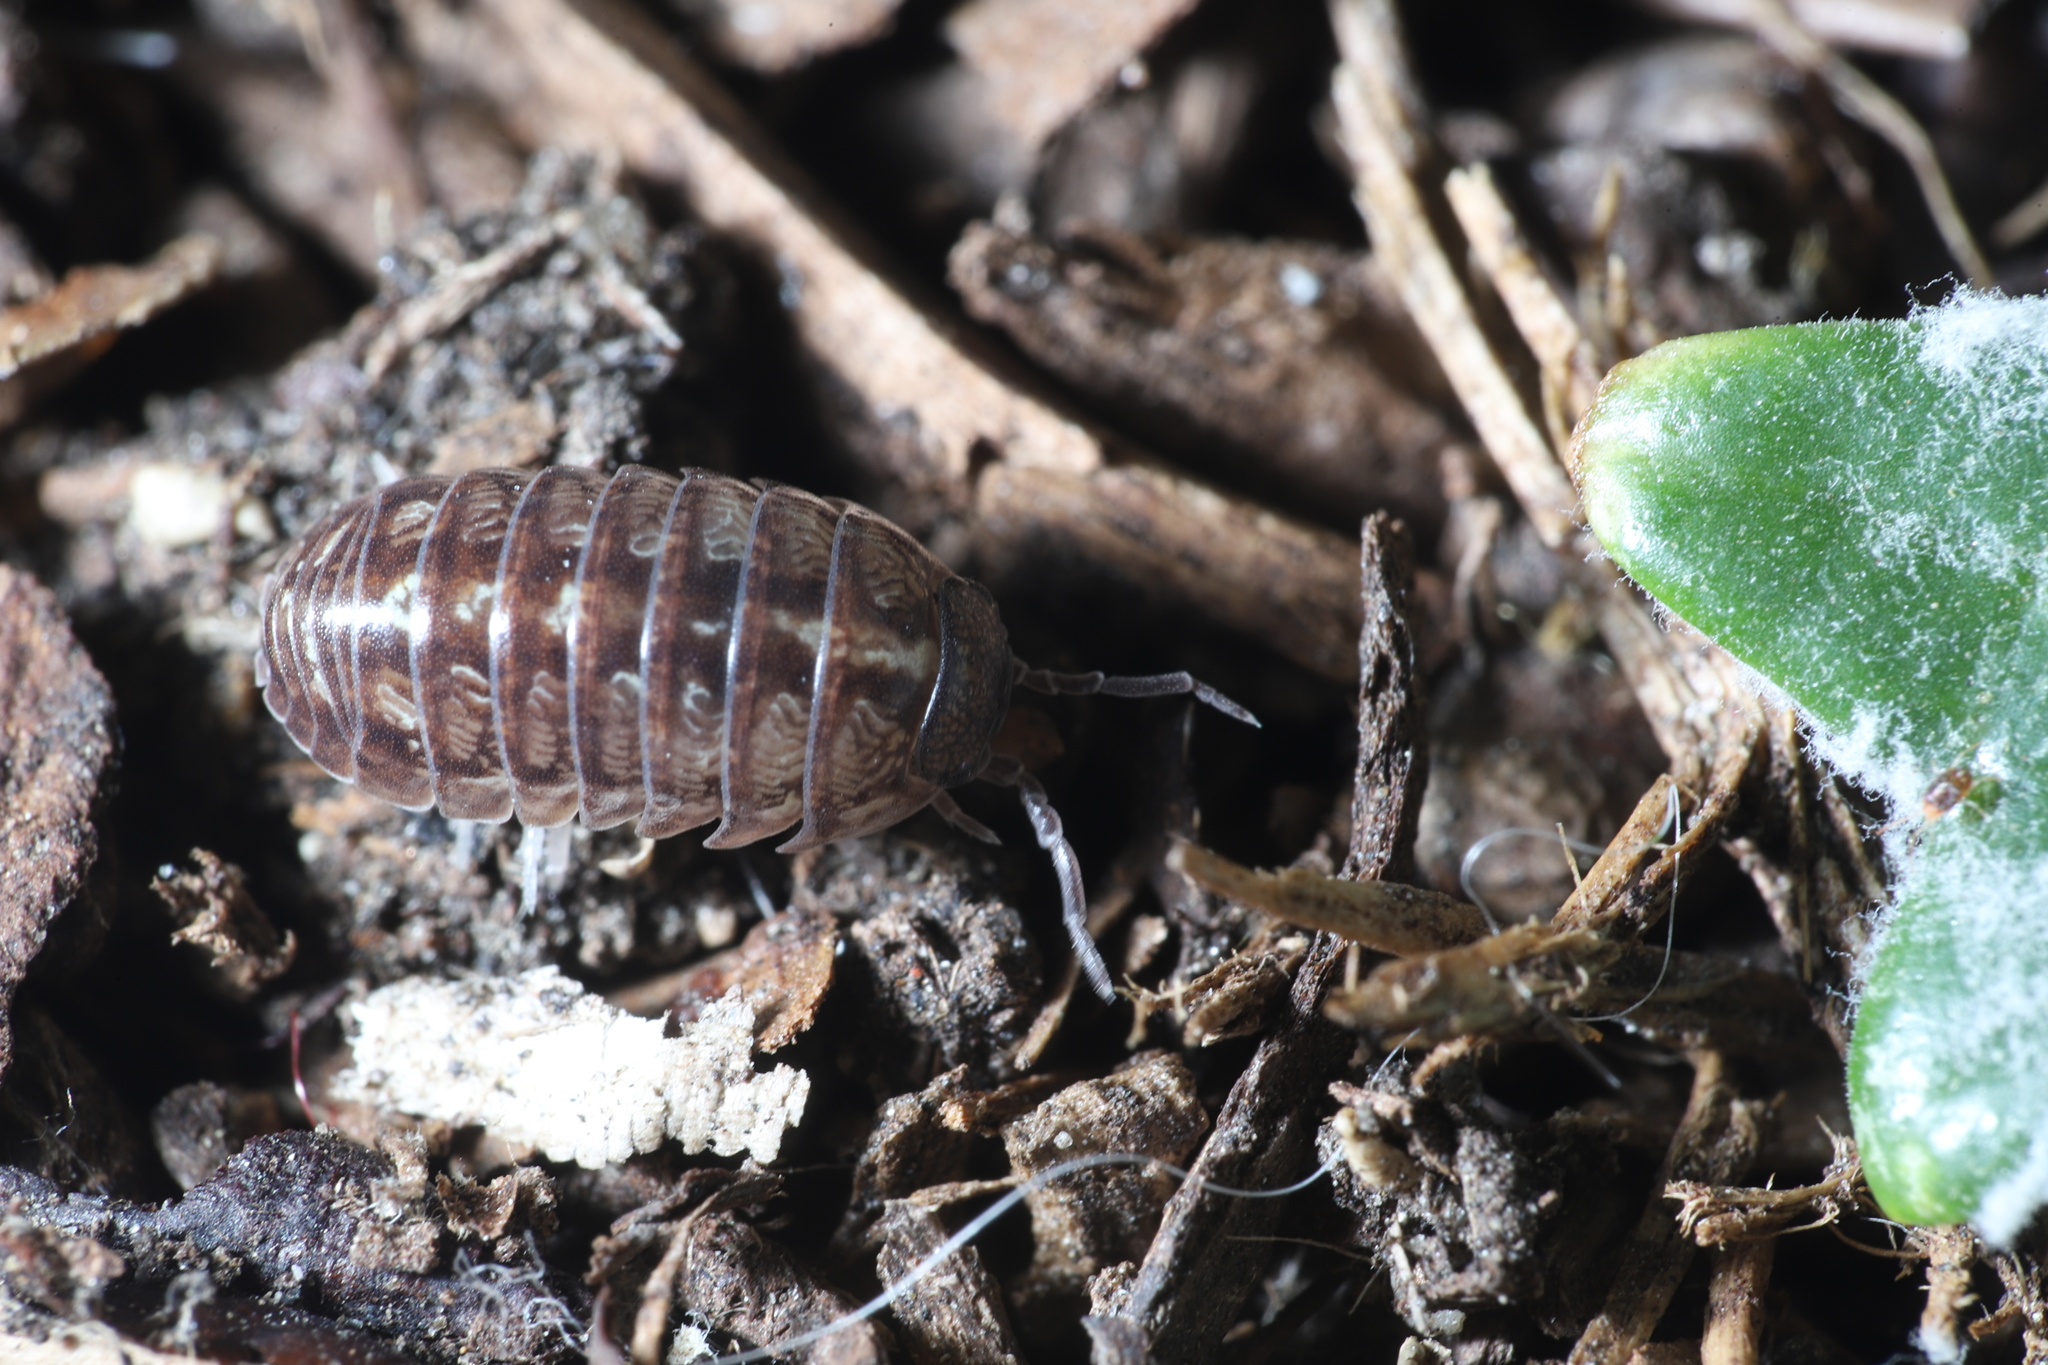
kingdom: Animalia
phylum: Arthropoda
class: Malacostraca
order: Isopoda
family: Armadillidiidae
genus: Armadillidium
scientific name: Armadillidium vulgare
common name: Common pill woodlouse
